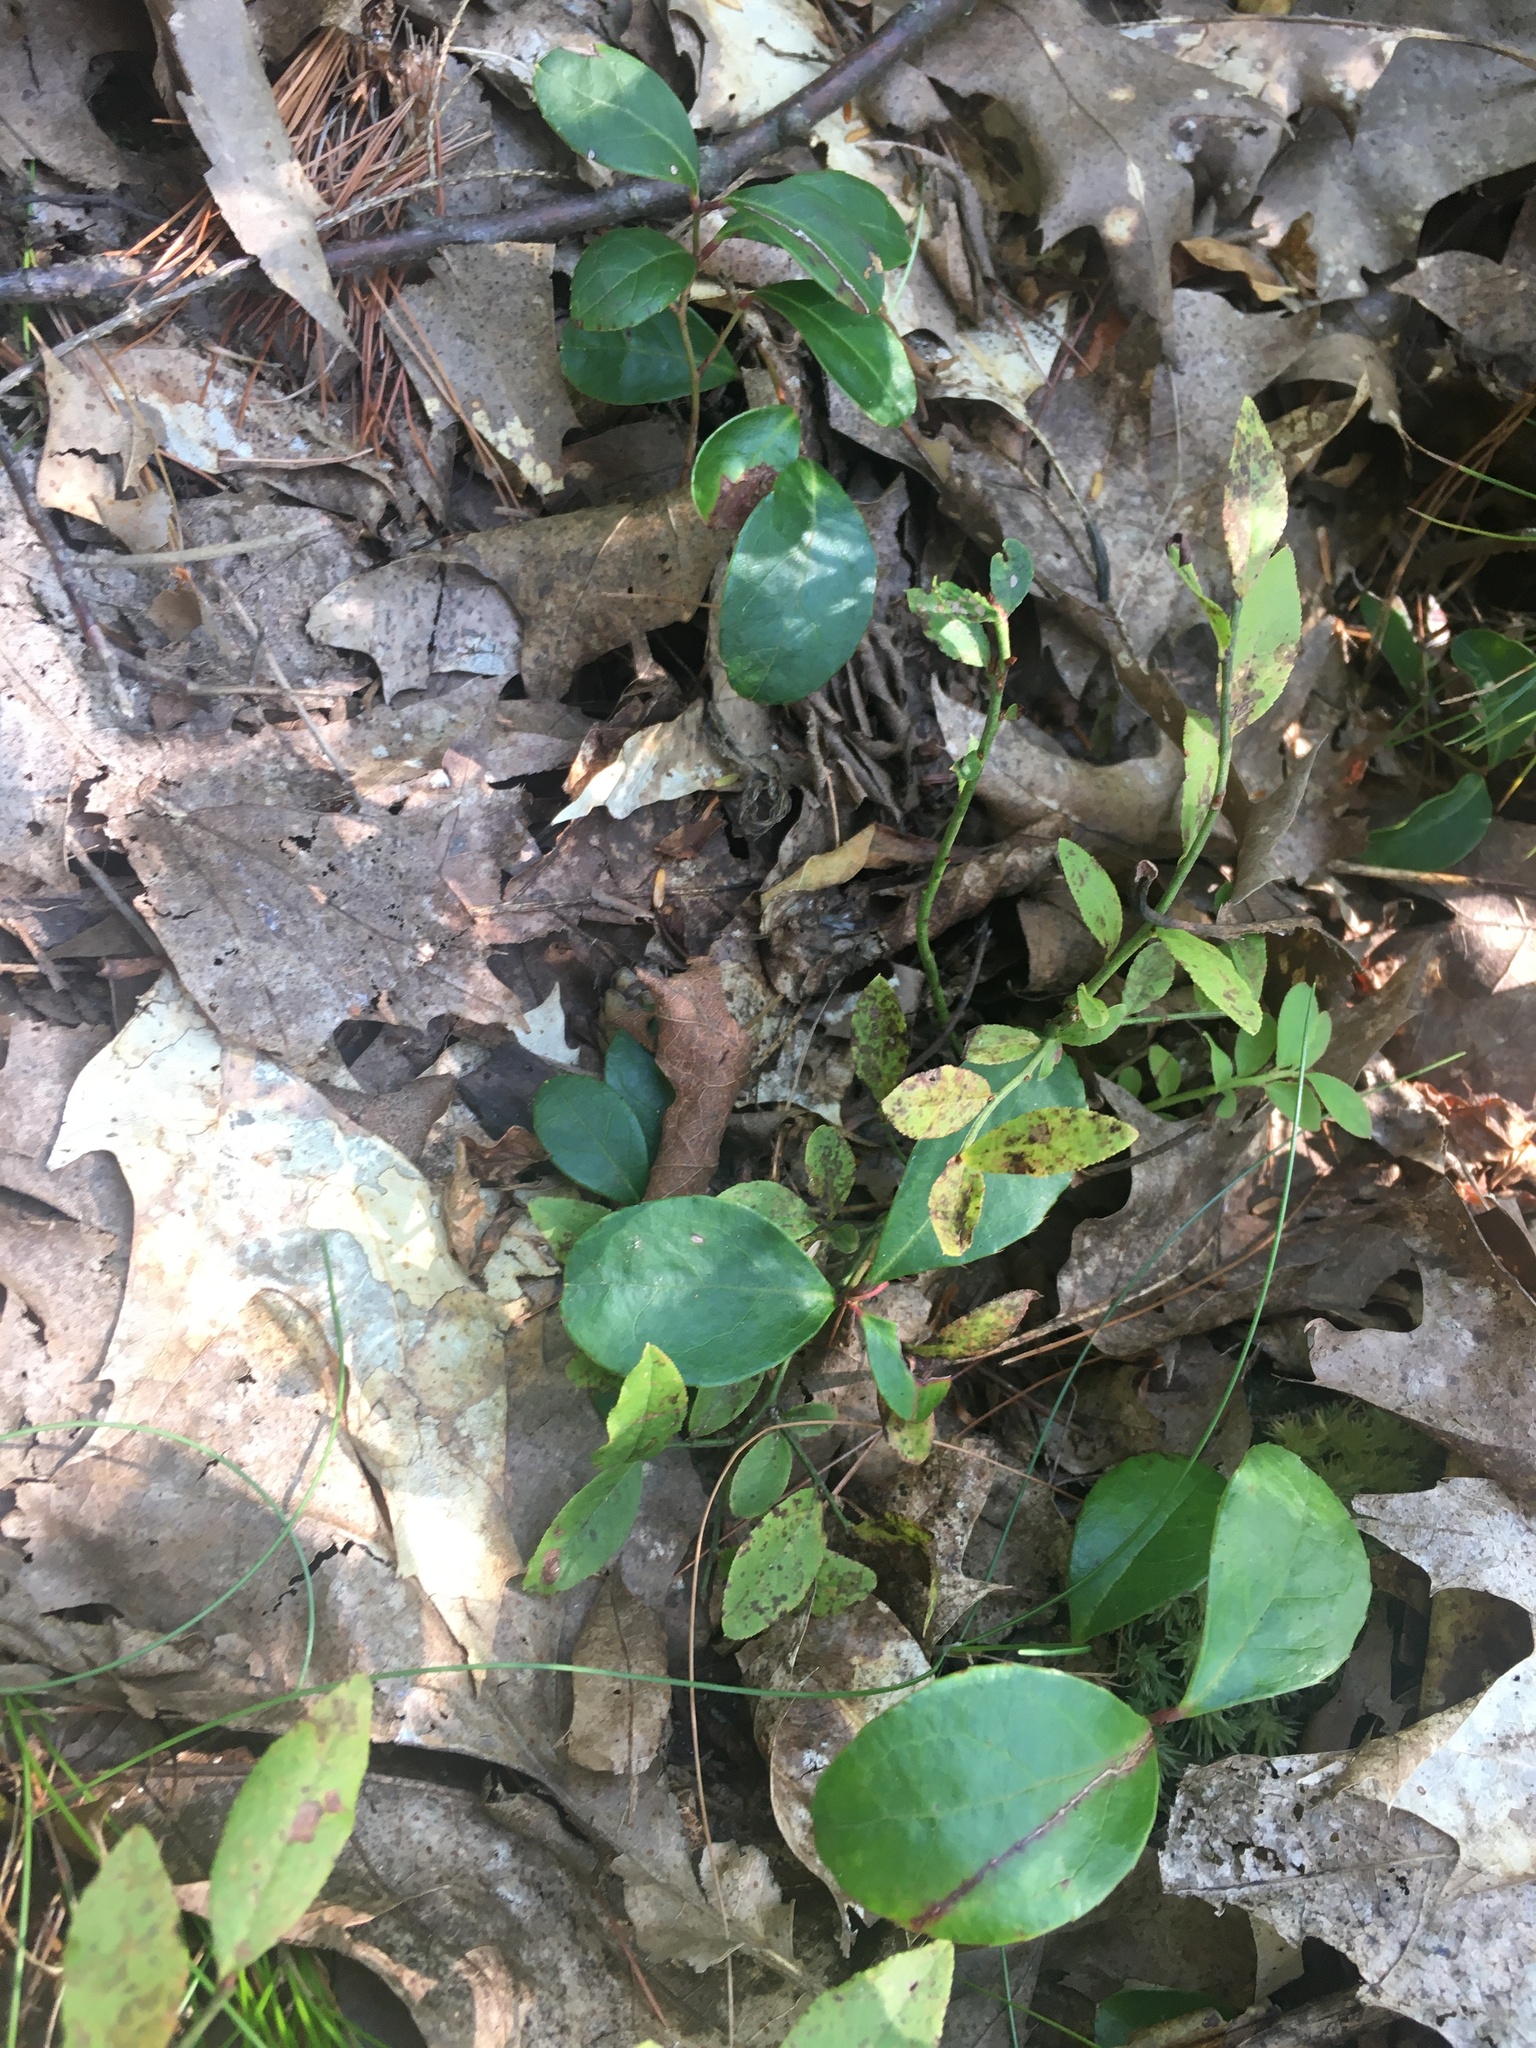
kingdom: Plantae
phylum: Tracheophyta
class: Magnoliopsida
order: Ericales
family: Ericaceae
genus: Gaultheria
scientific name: Gaultheria procumbens
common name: Checkerberry
